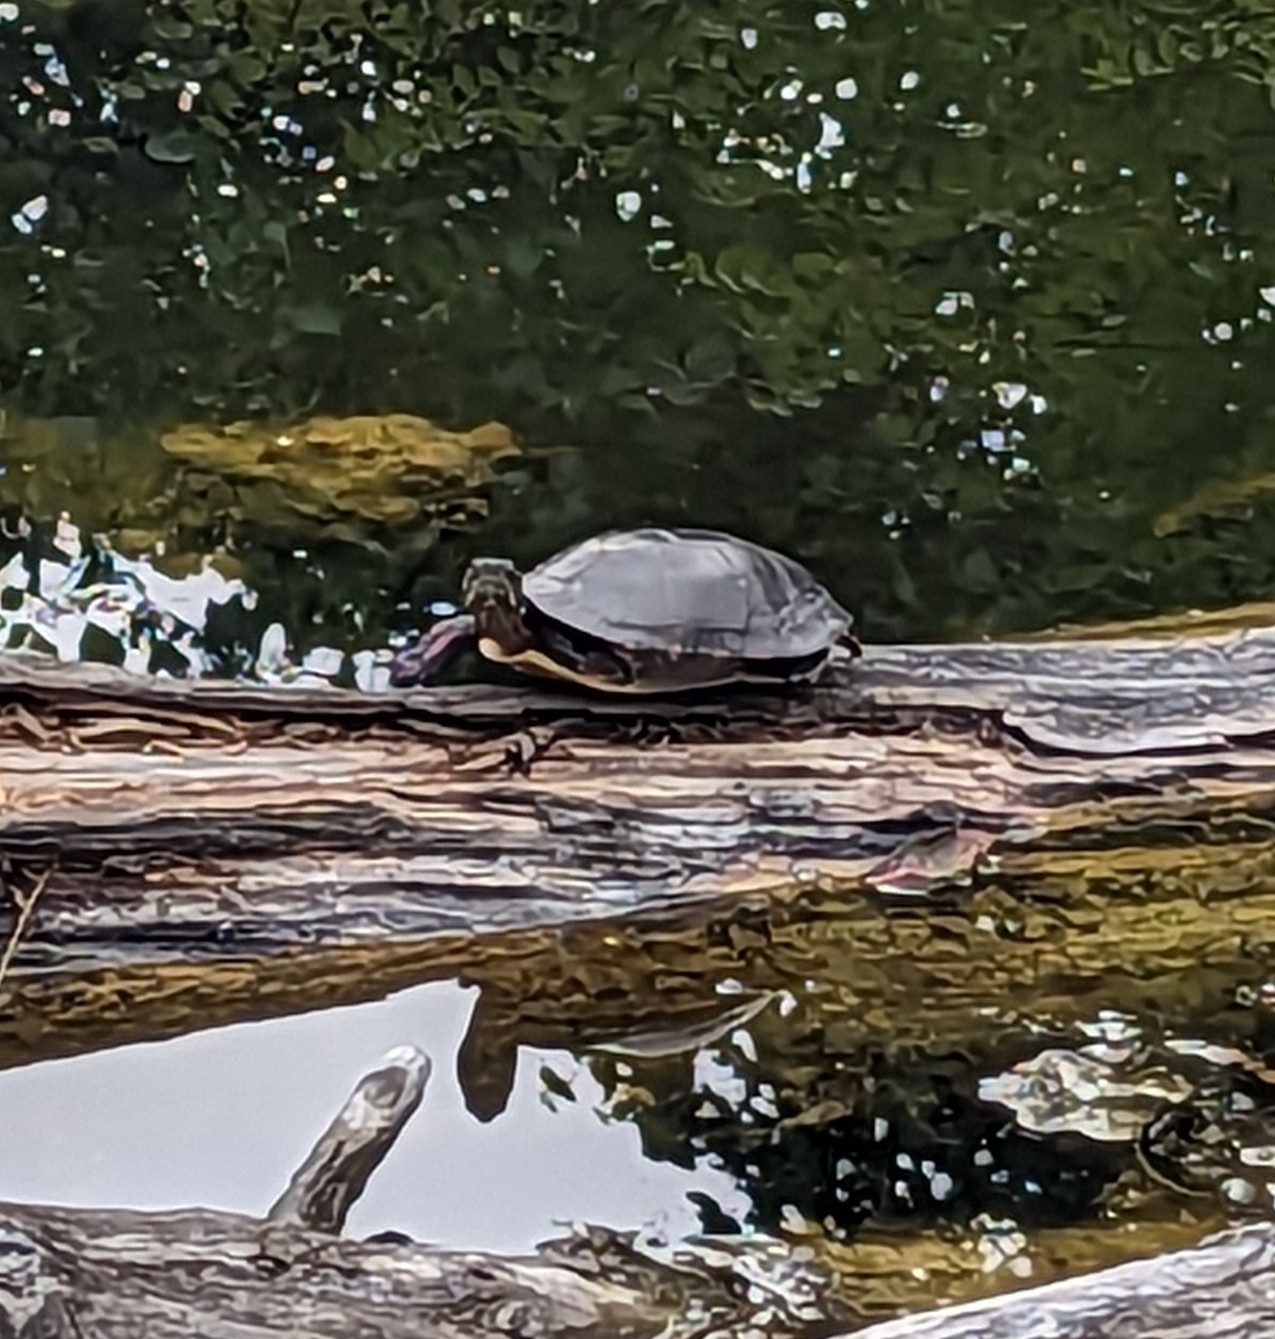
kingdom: Animalia
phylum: Chordata
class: Testudines
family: Emydidae
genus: Chrysemys
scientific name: Chrysemys picta
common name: Painted turtle
